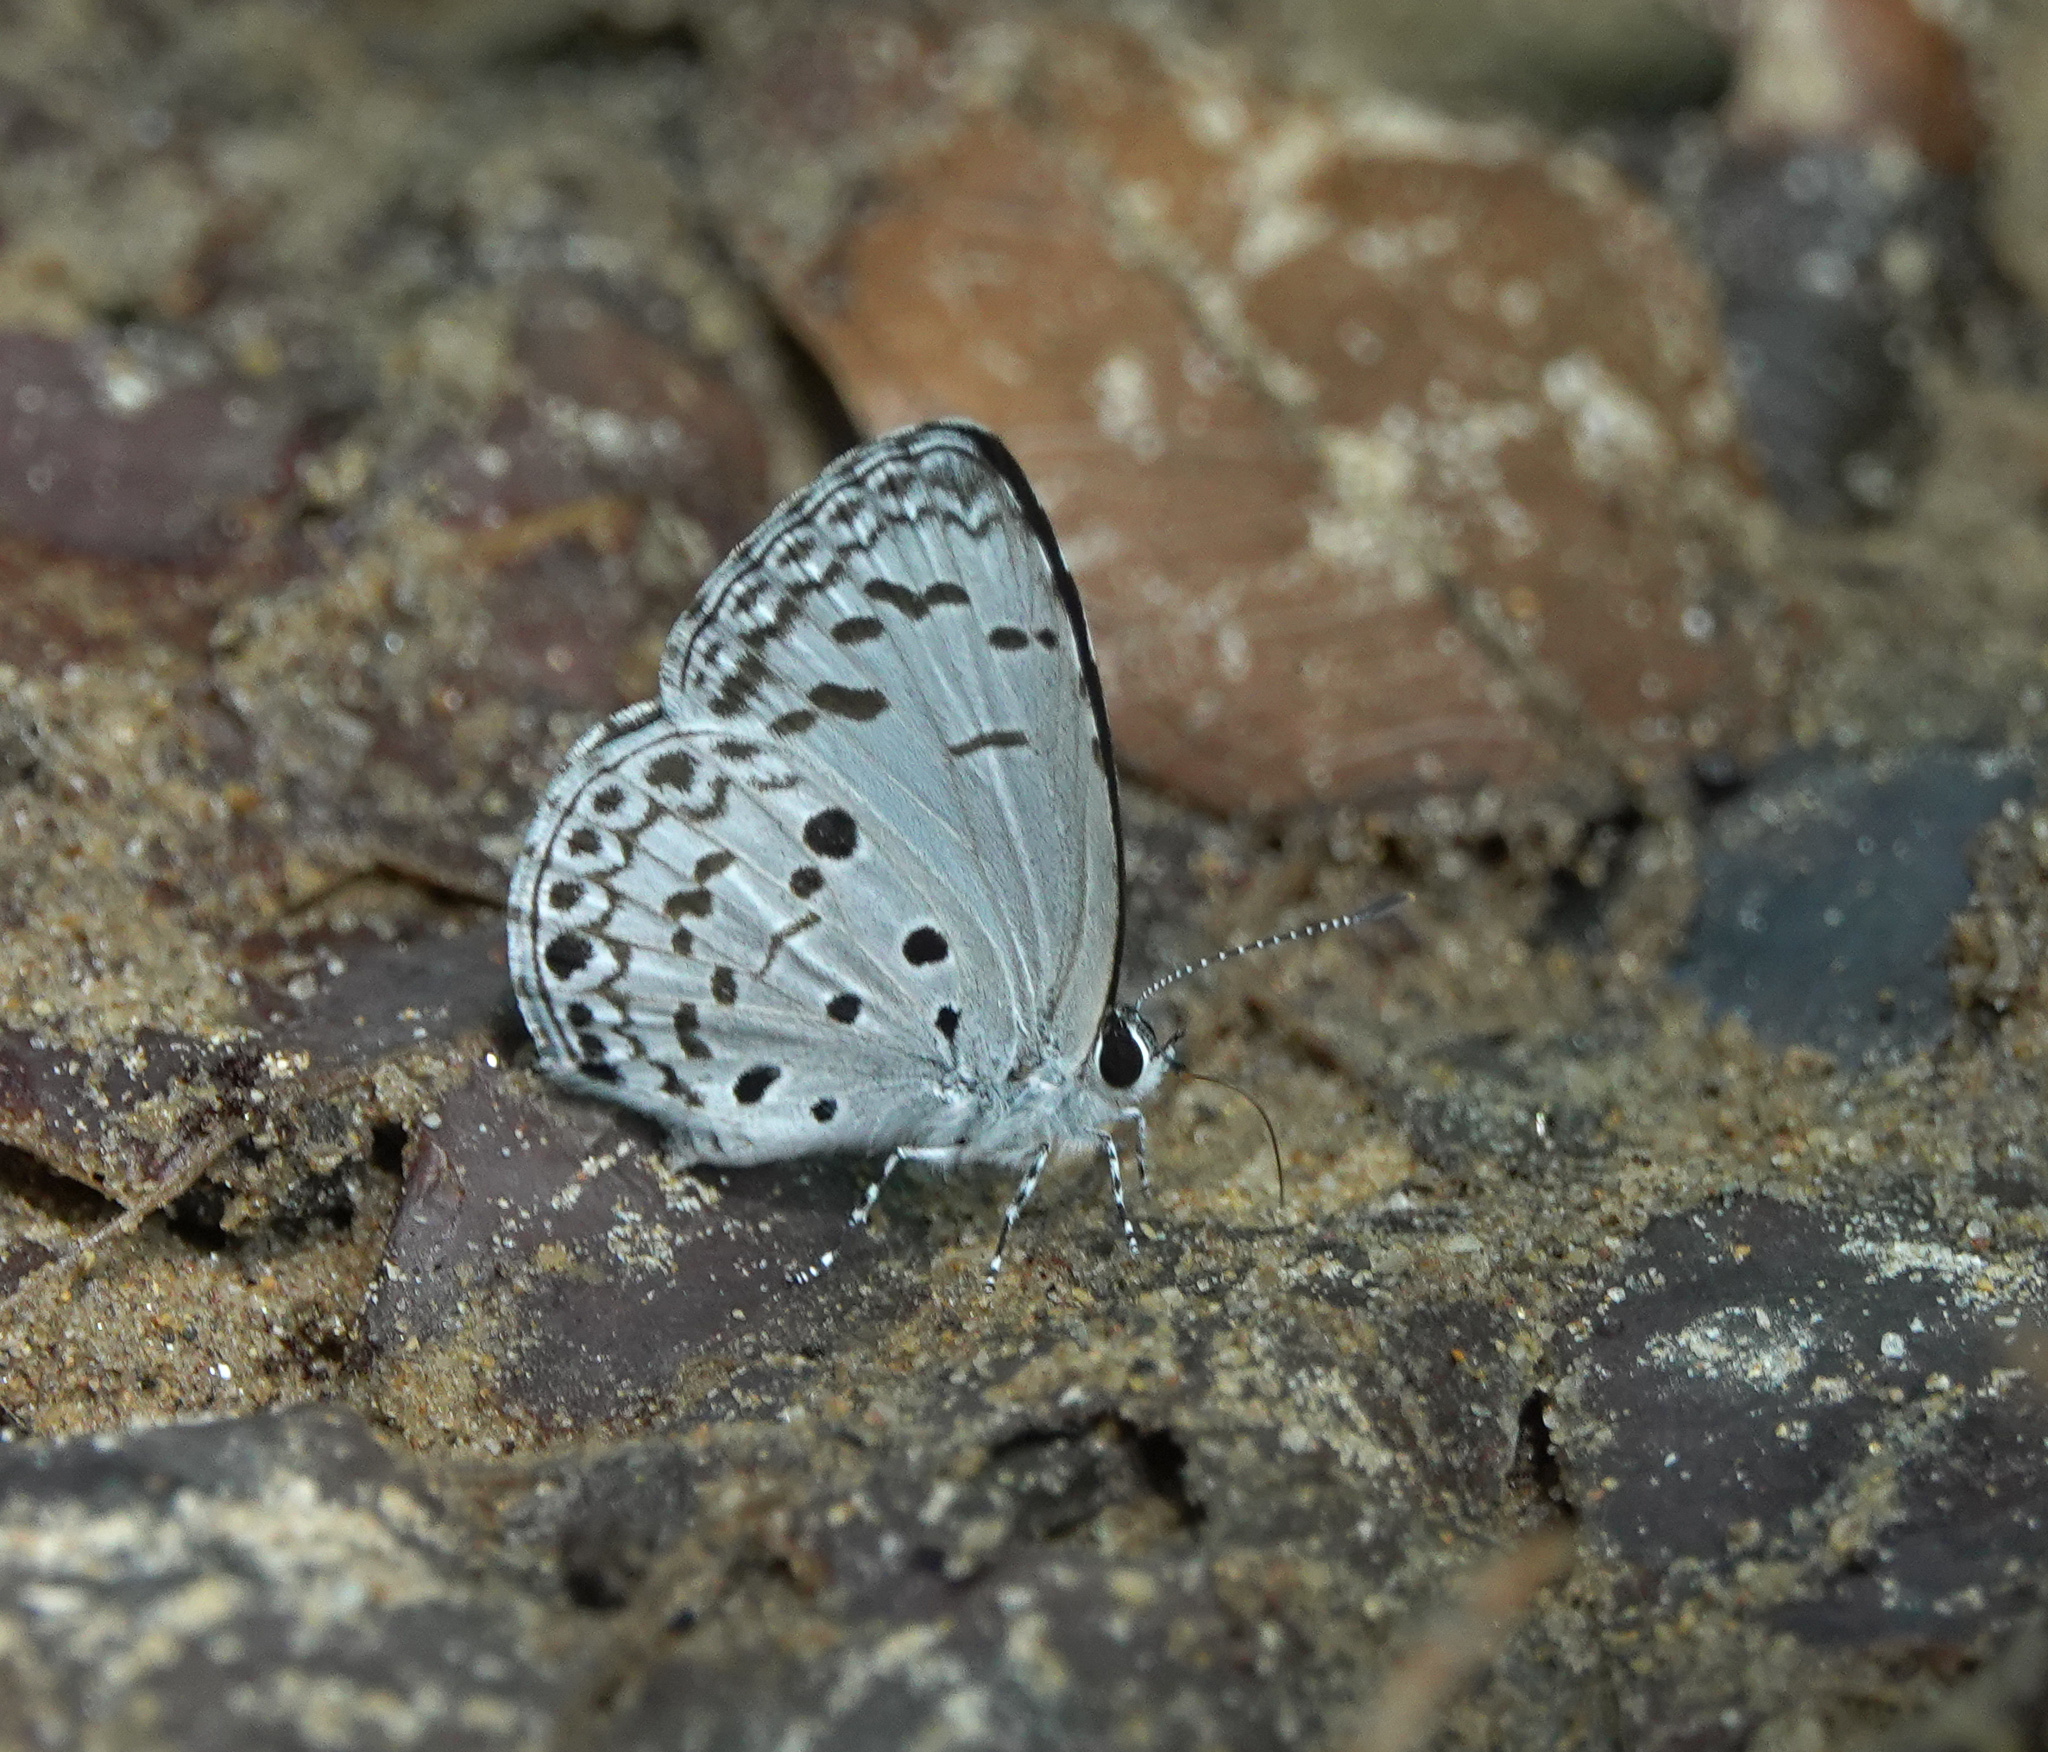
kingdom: Animalia
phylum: Arthropoda
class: Insecta
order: Lepidoptera
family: Lycaenidae
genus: Acytolepis
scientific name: Acytolepis puspa
